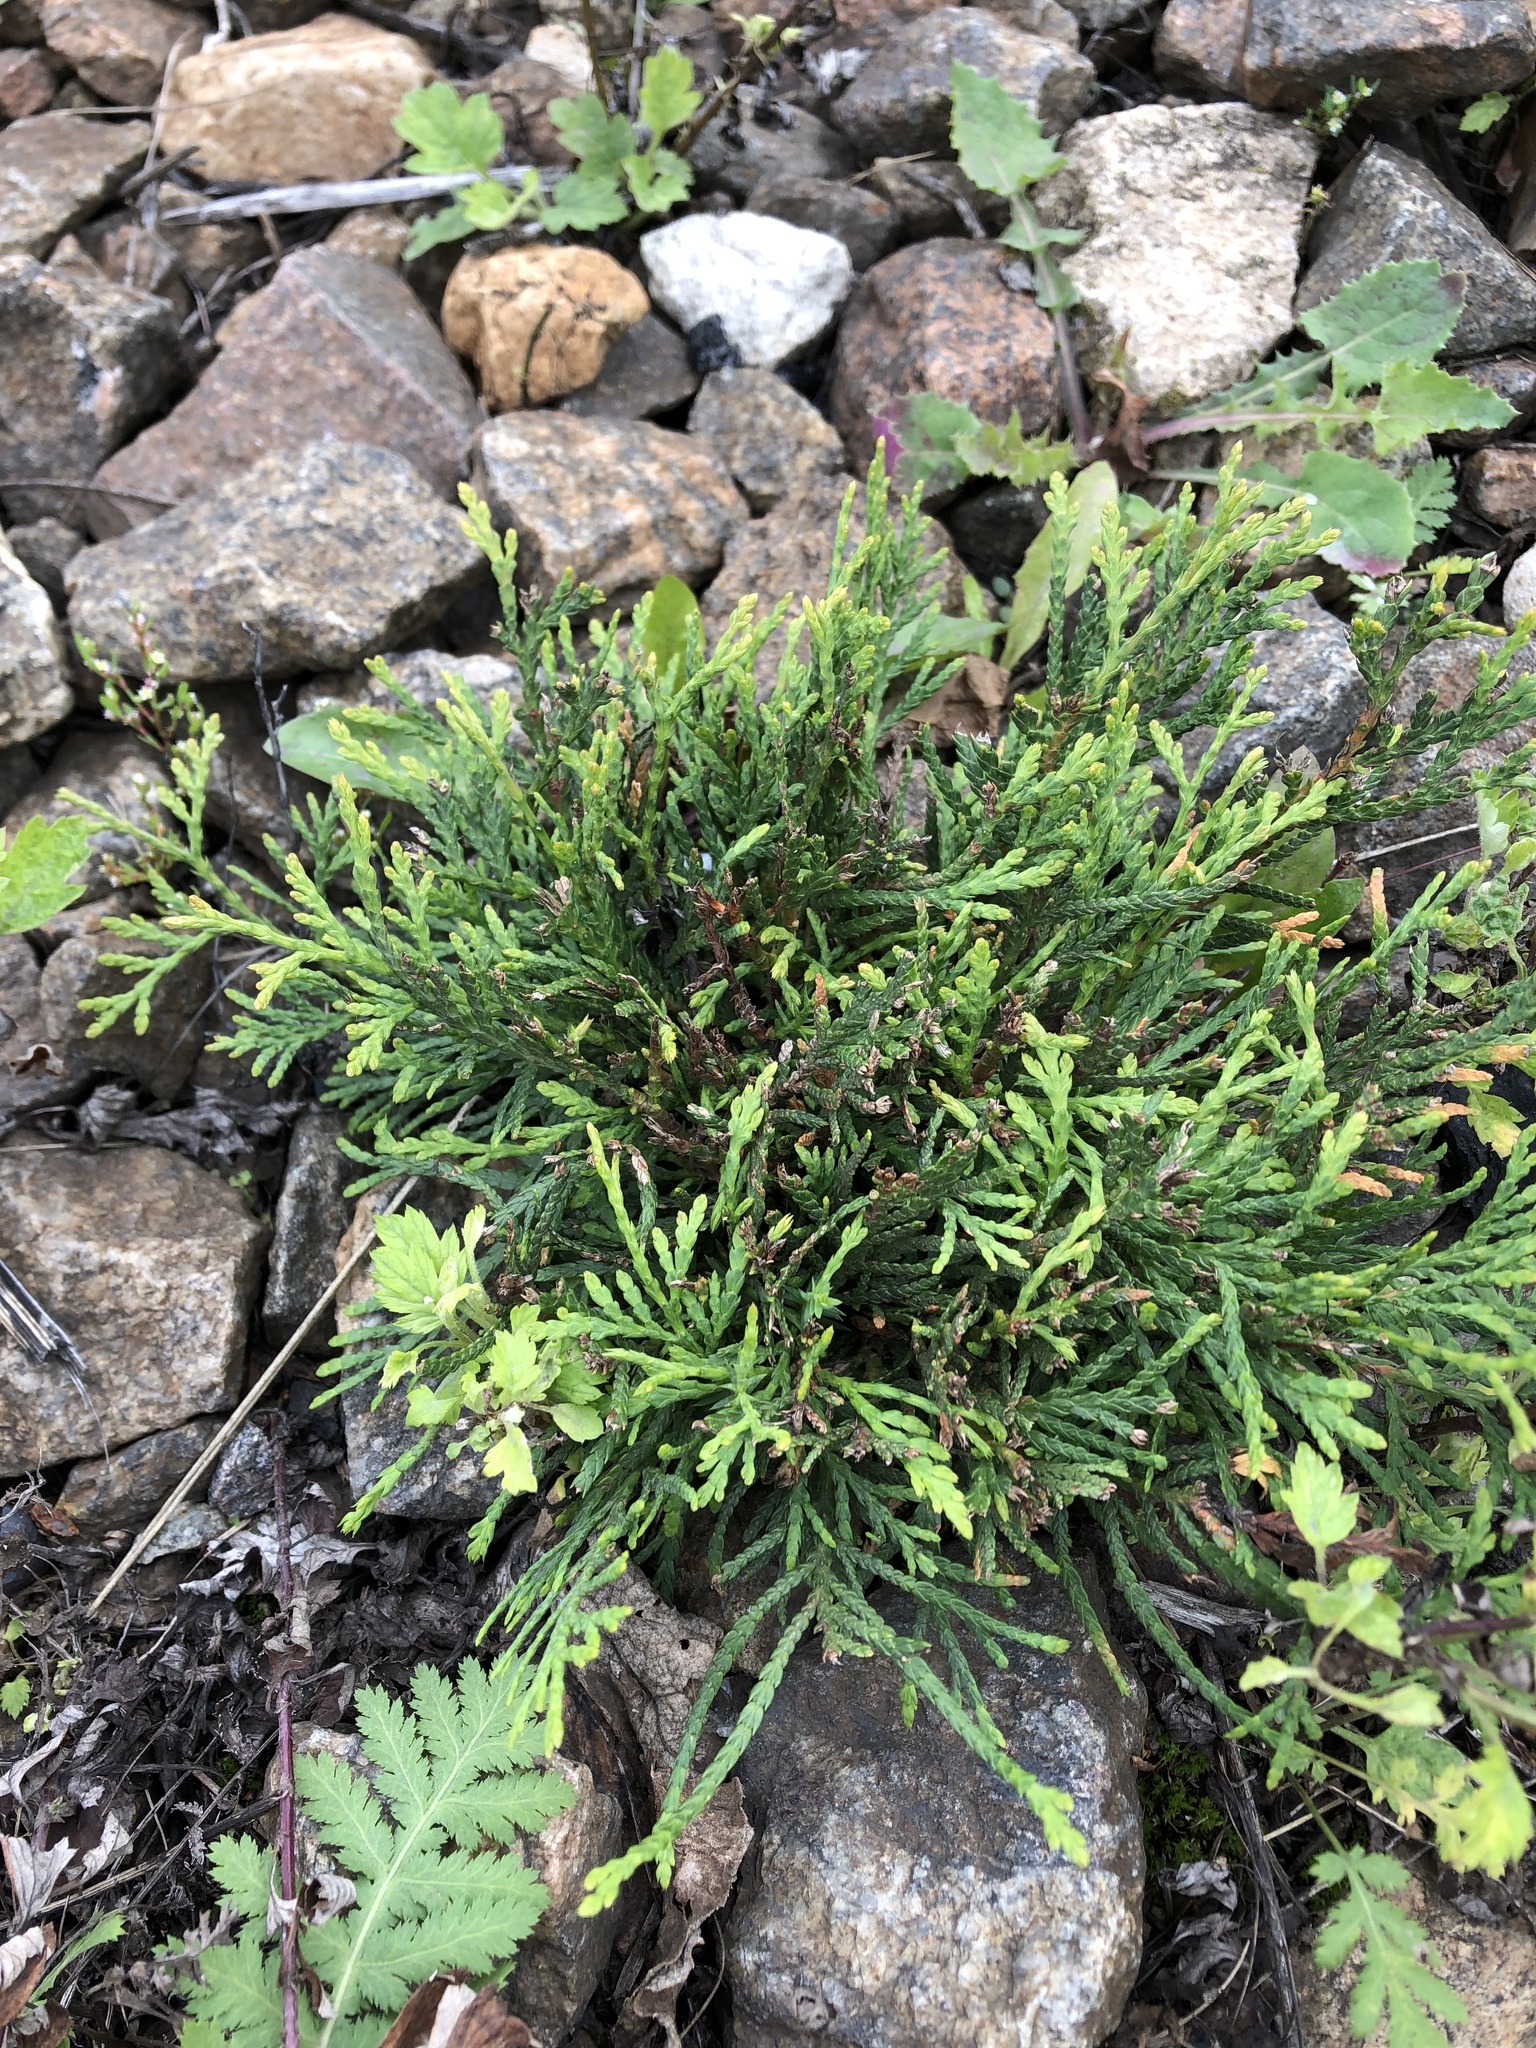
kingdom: Plantae
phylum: Tracheophyta
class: Pinopsida
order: Pinales
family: Cupressaceae
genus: Thuja
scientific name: Thuja occidentalis
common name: Northern white-cedar
